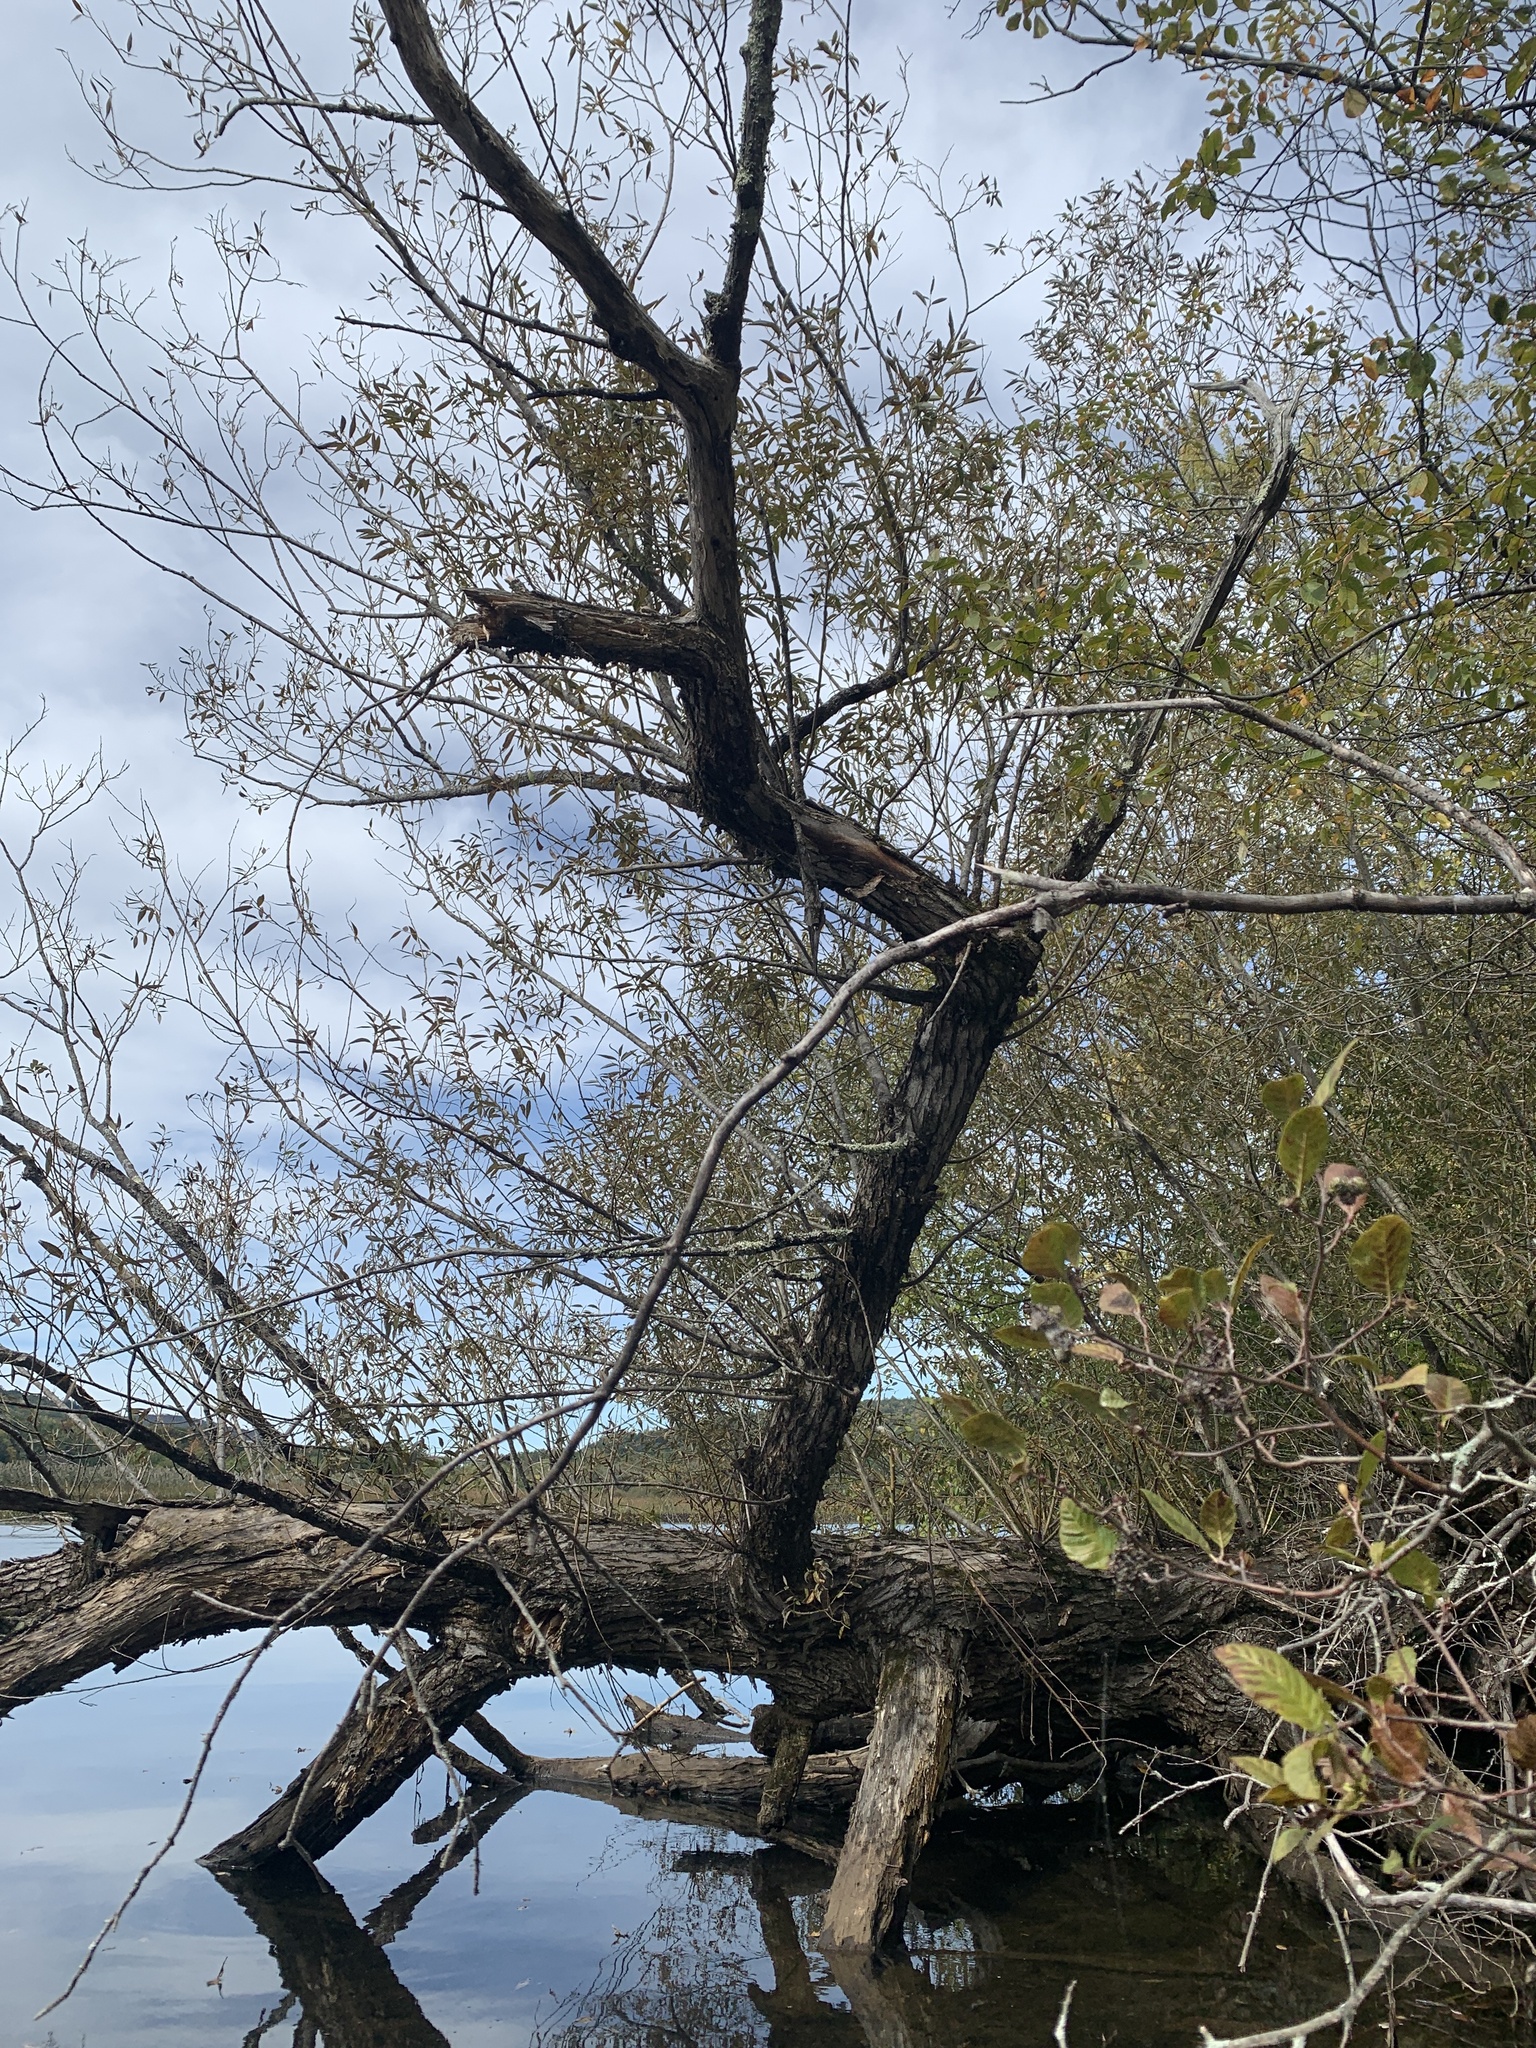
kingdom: Plantae
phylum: Tracheophyta
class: Magnoliopsida
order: Malpighiales
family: Salicaceae
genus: Salix
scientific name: Salix nigra
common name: Black willow
